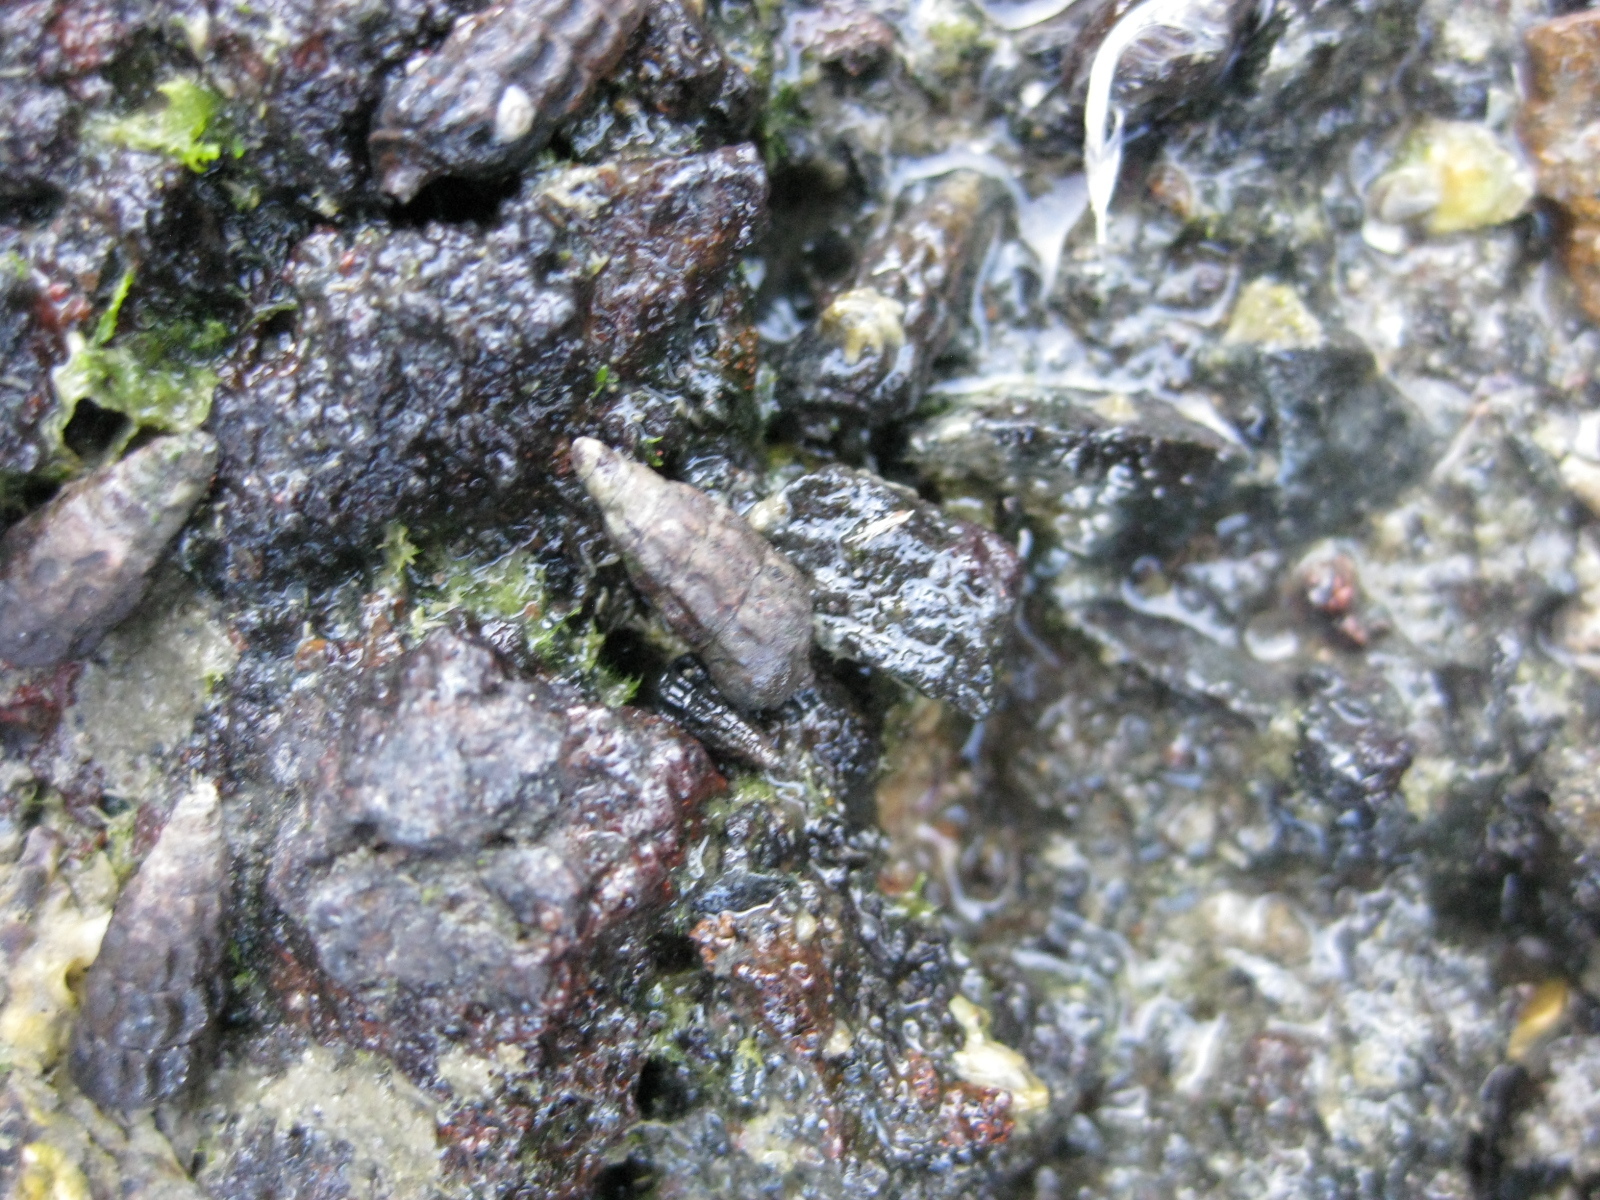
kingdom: Animalia
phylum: Mollusca
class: Gastropoda
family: Batillariidae
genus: Zeacumantus
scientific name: Zeacumantus subcarinatus
